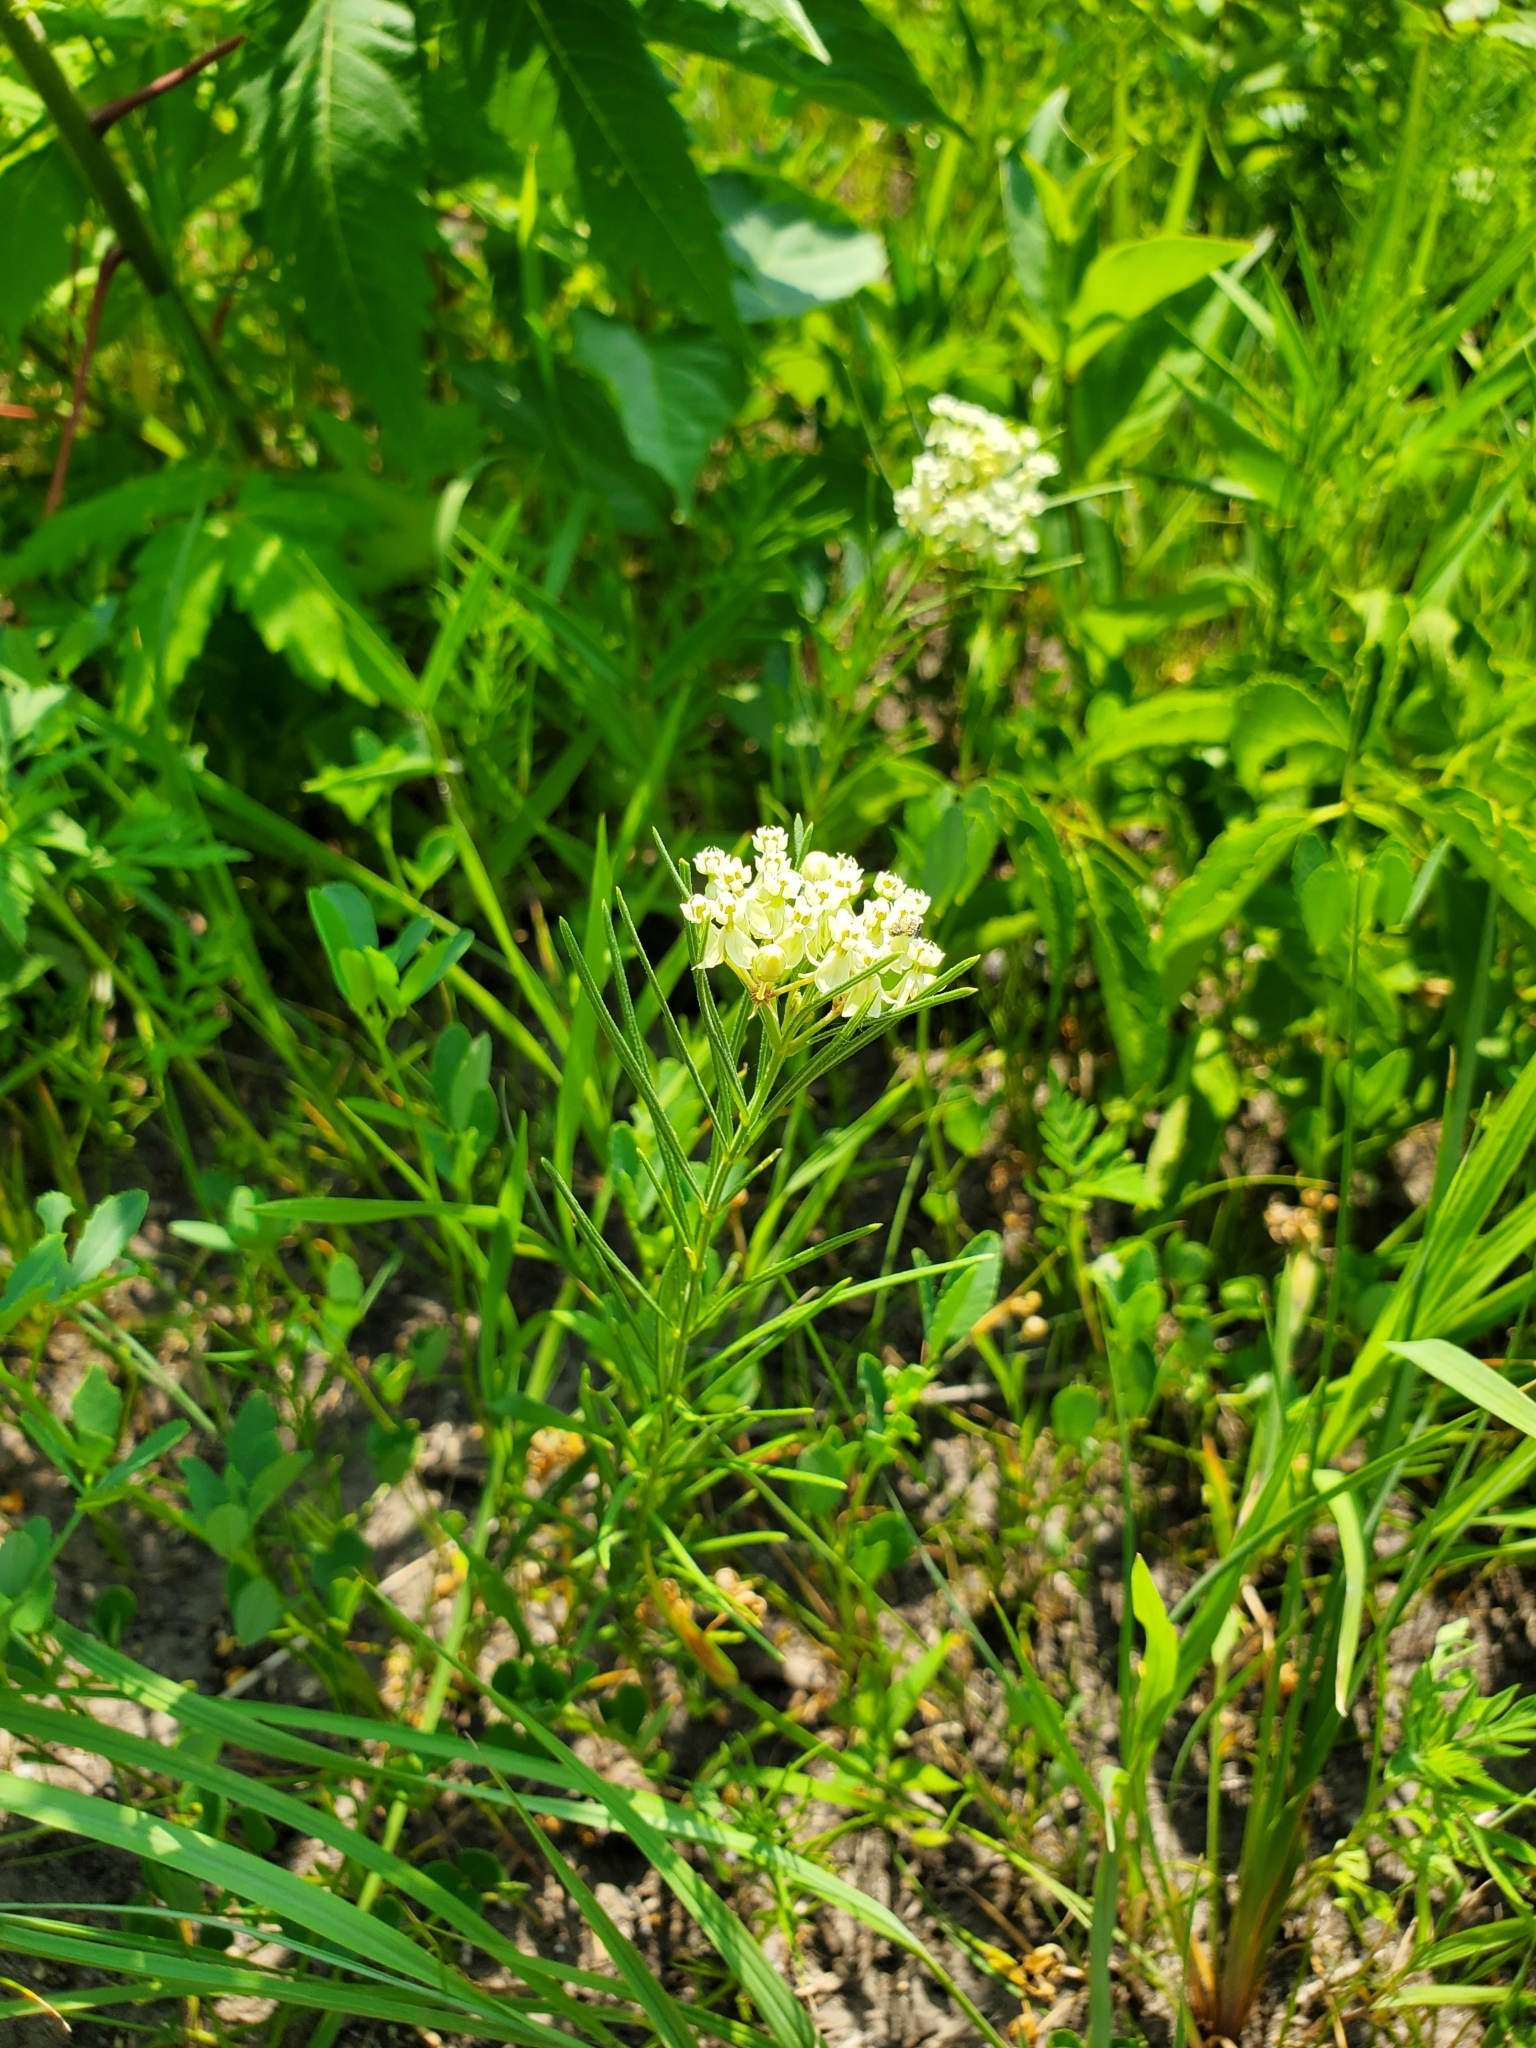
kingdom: Plantae
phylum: Tracheophyta
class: Magnoliopsida
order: Gentianales
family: Apocynaceae
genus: Asclepias
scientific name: Asclepias verticillata
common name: Eastern whorled milkweed
